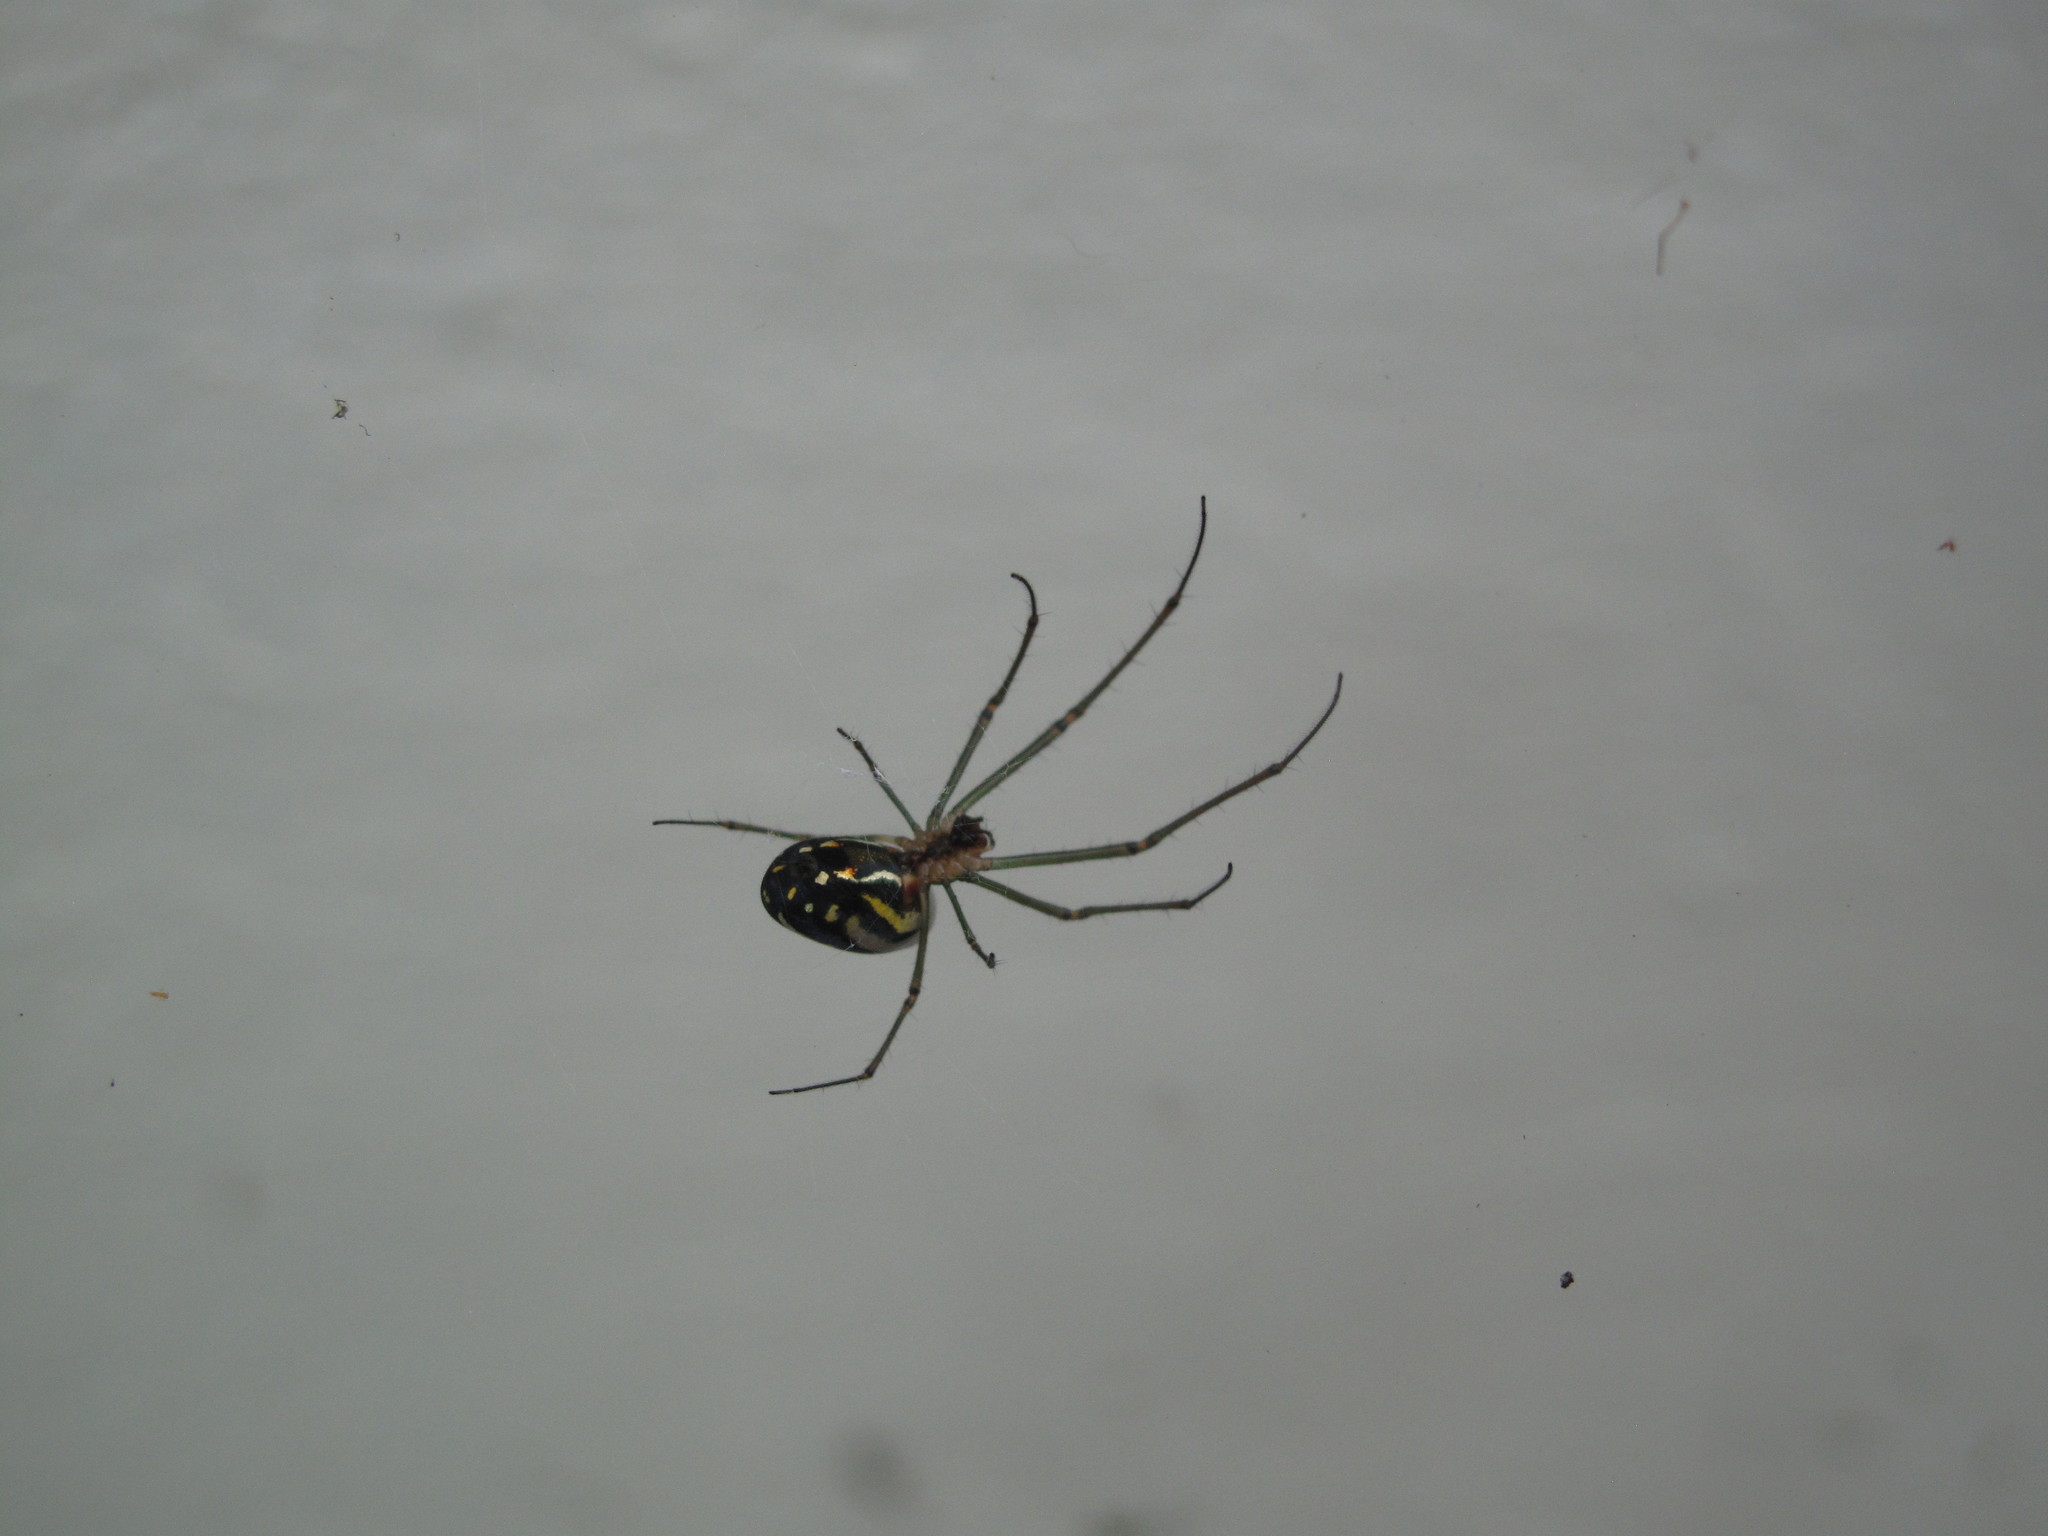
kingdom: Animalia
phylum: Arthropoda
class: Arachnida
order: Araneae
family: Tetragnathidae
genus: Leucauge
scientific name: Leucauge argyra
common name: Longjawed orb weavers
